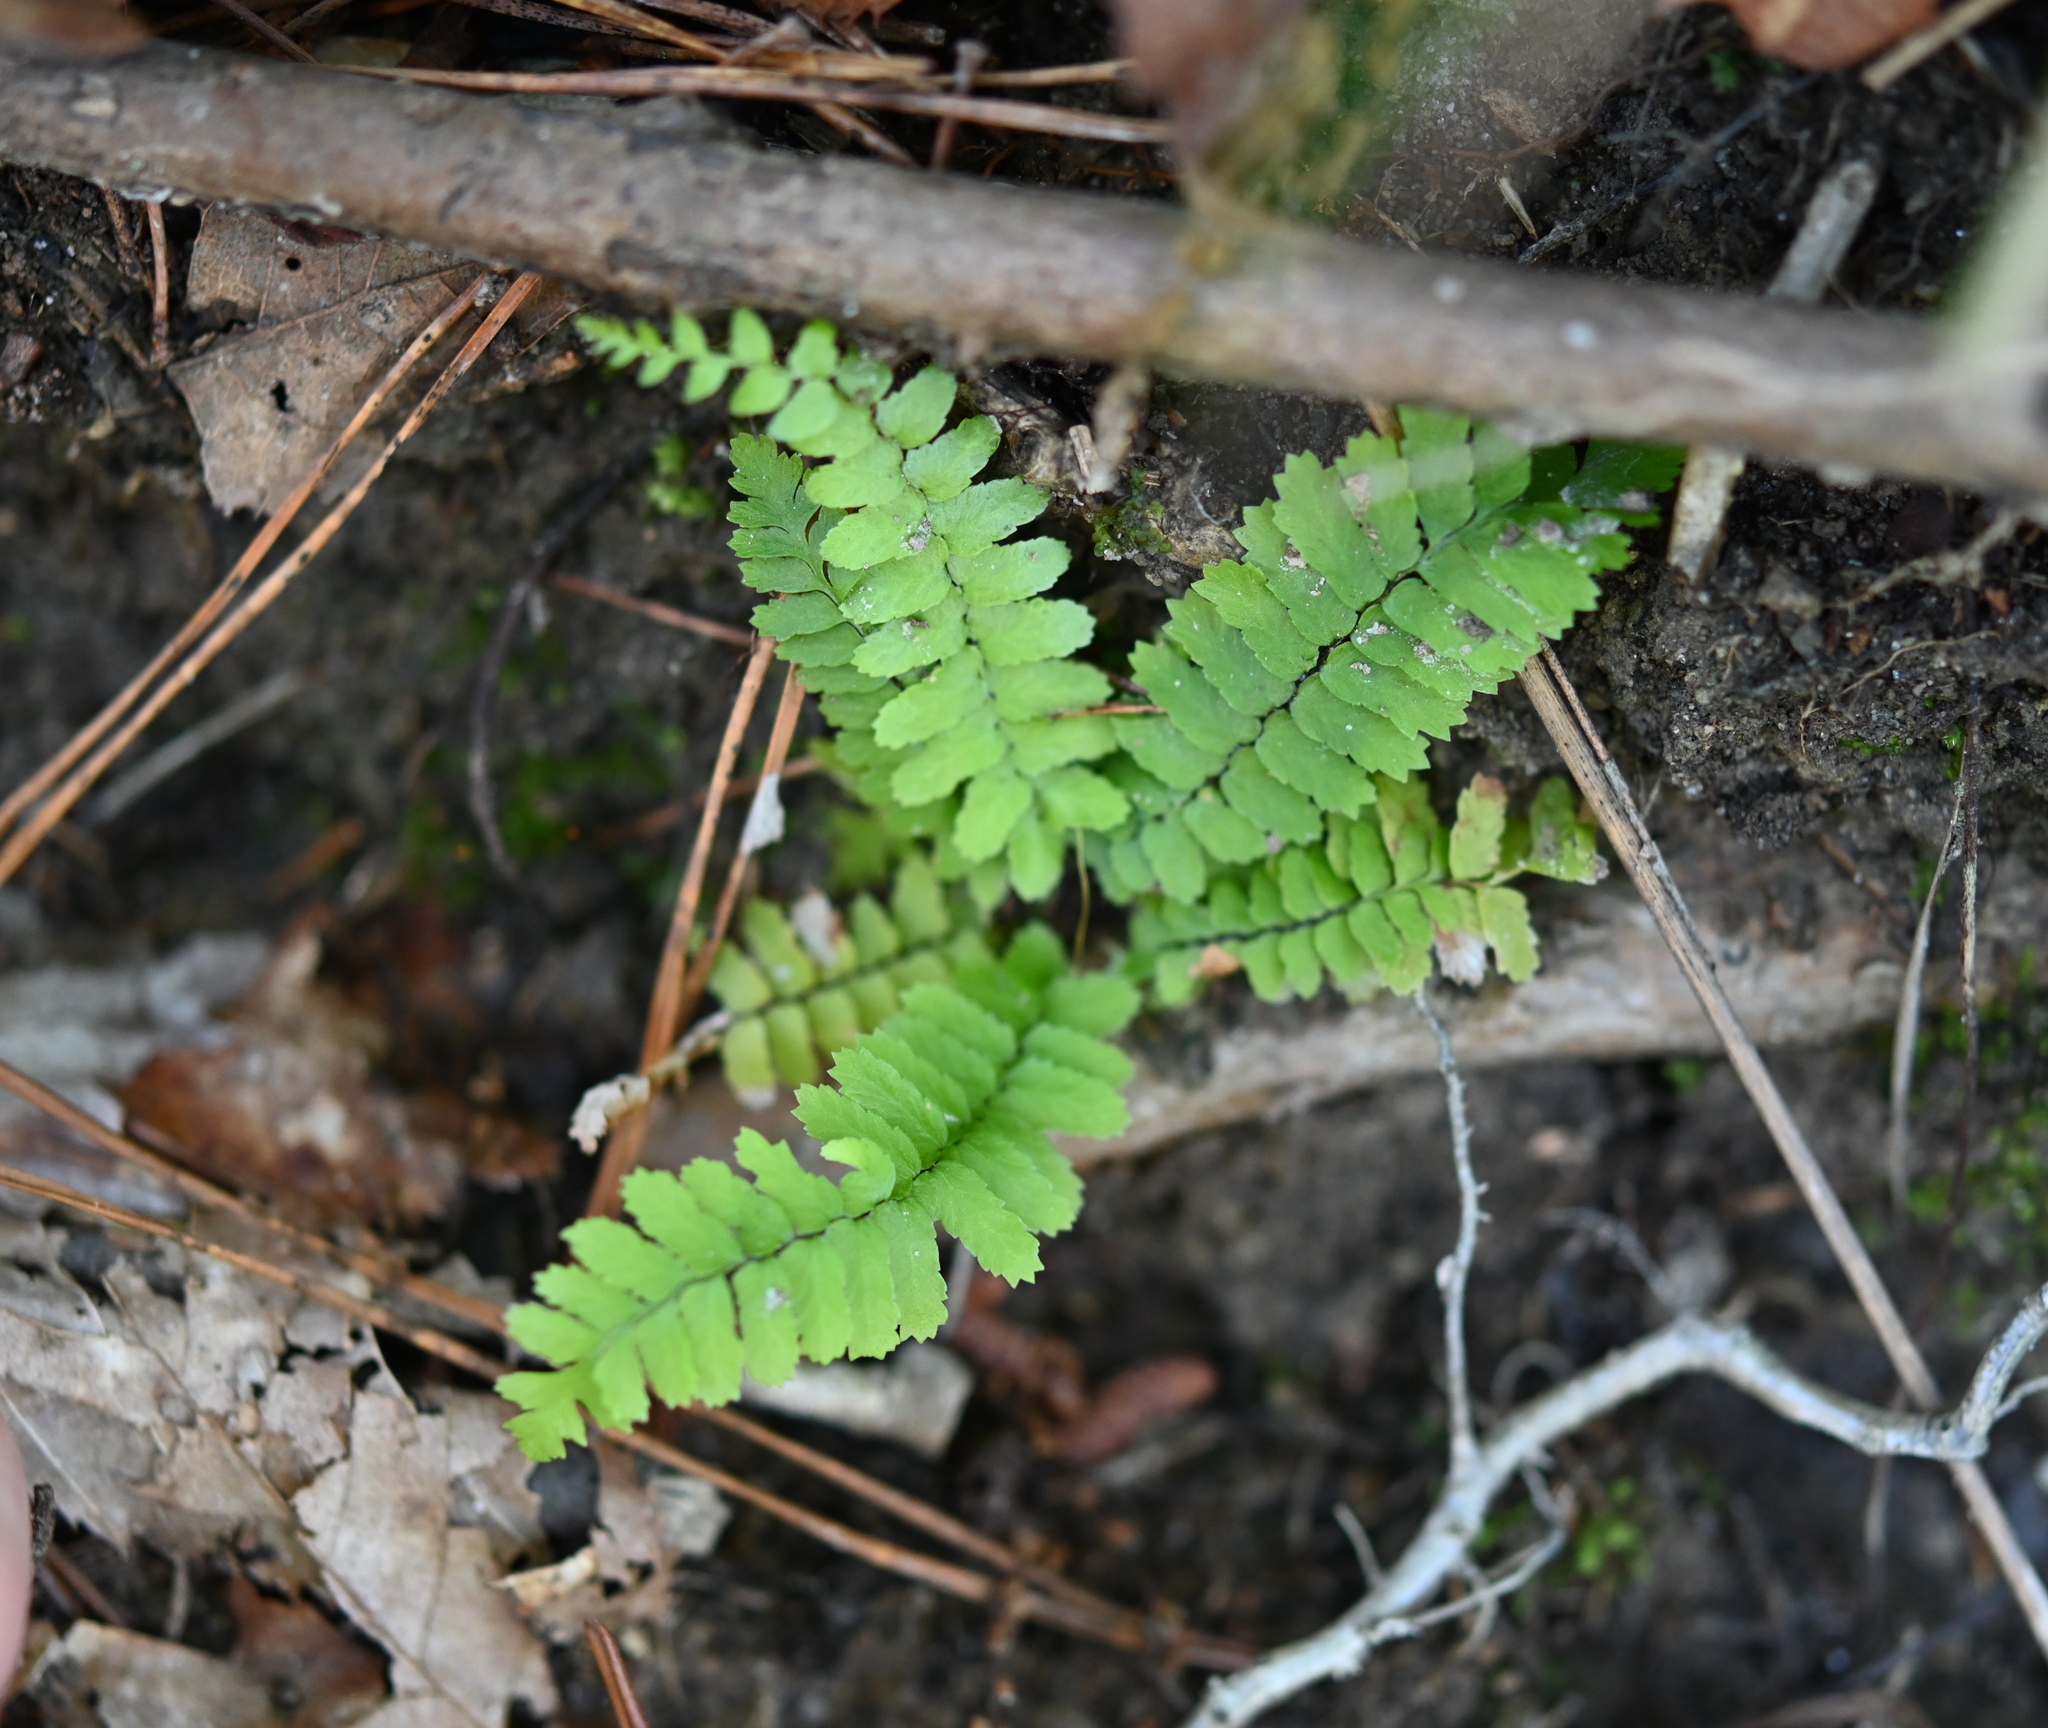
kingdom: Plantae
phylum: Tracheophyta
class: Polypodiopsida
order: Polypodiales
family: Aspleniaceae
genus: Asplenium
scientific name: Asplenium platyneuron
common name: Ebony spleenwort
